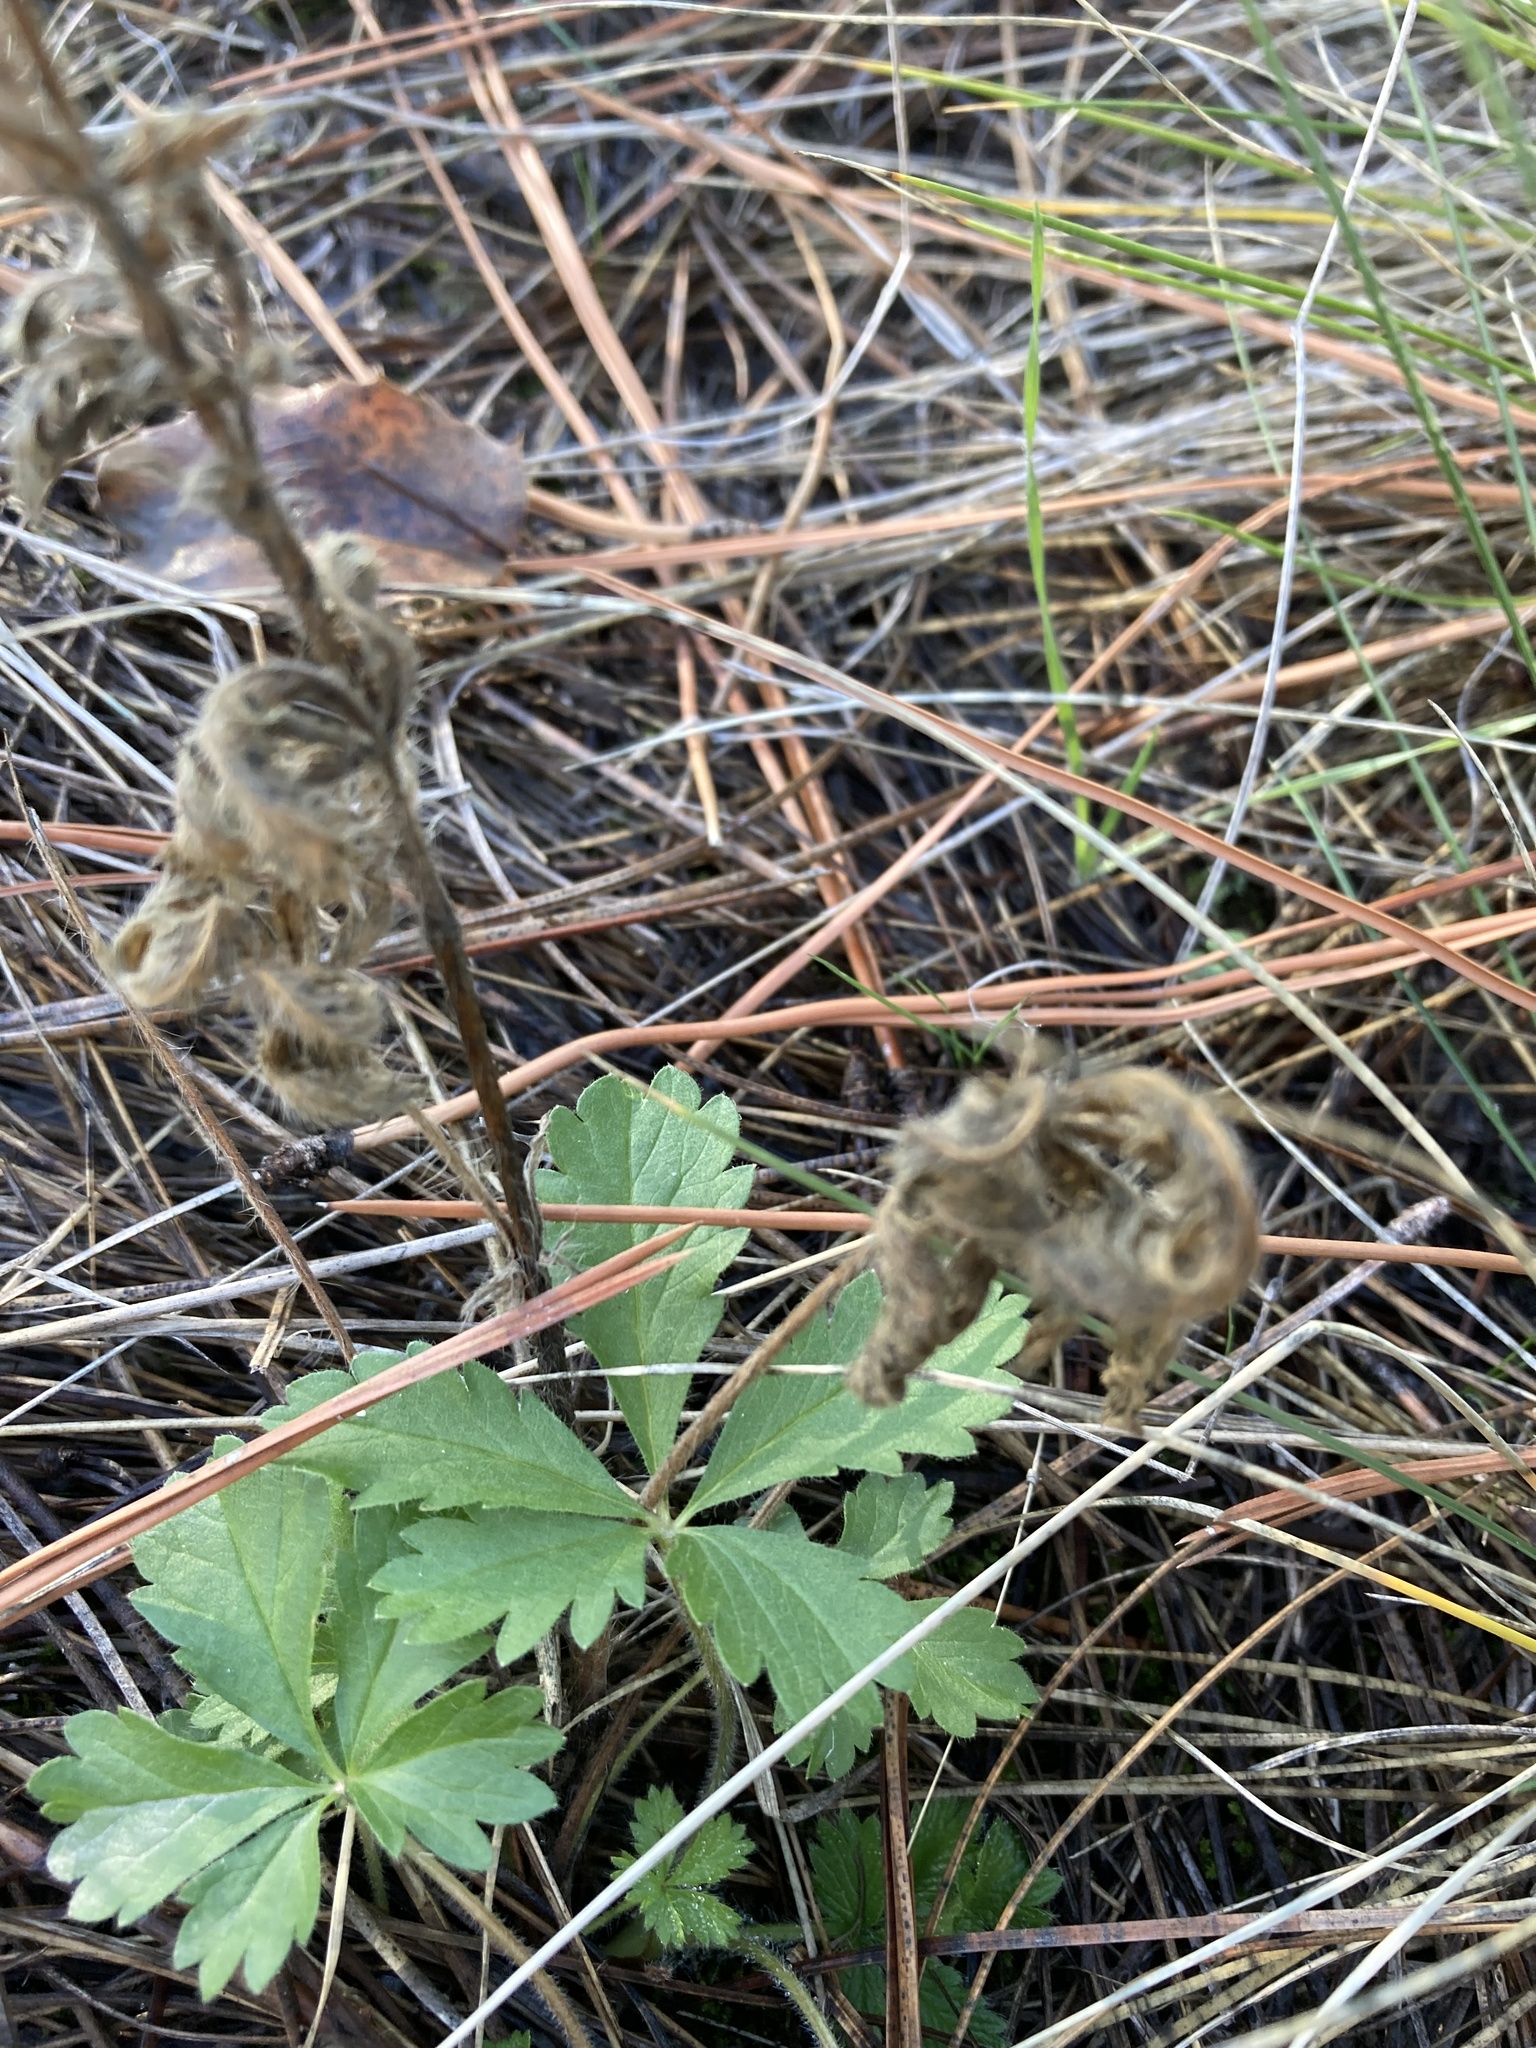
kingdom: Plantae
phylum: Tracheophyta
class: Magnoliopsida
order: Rosales
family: Rosaceae
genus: Potentilla
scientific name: Potentilla recta
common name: Sulphur cinquefoil
